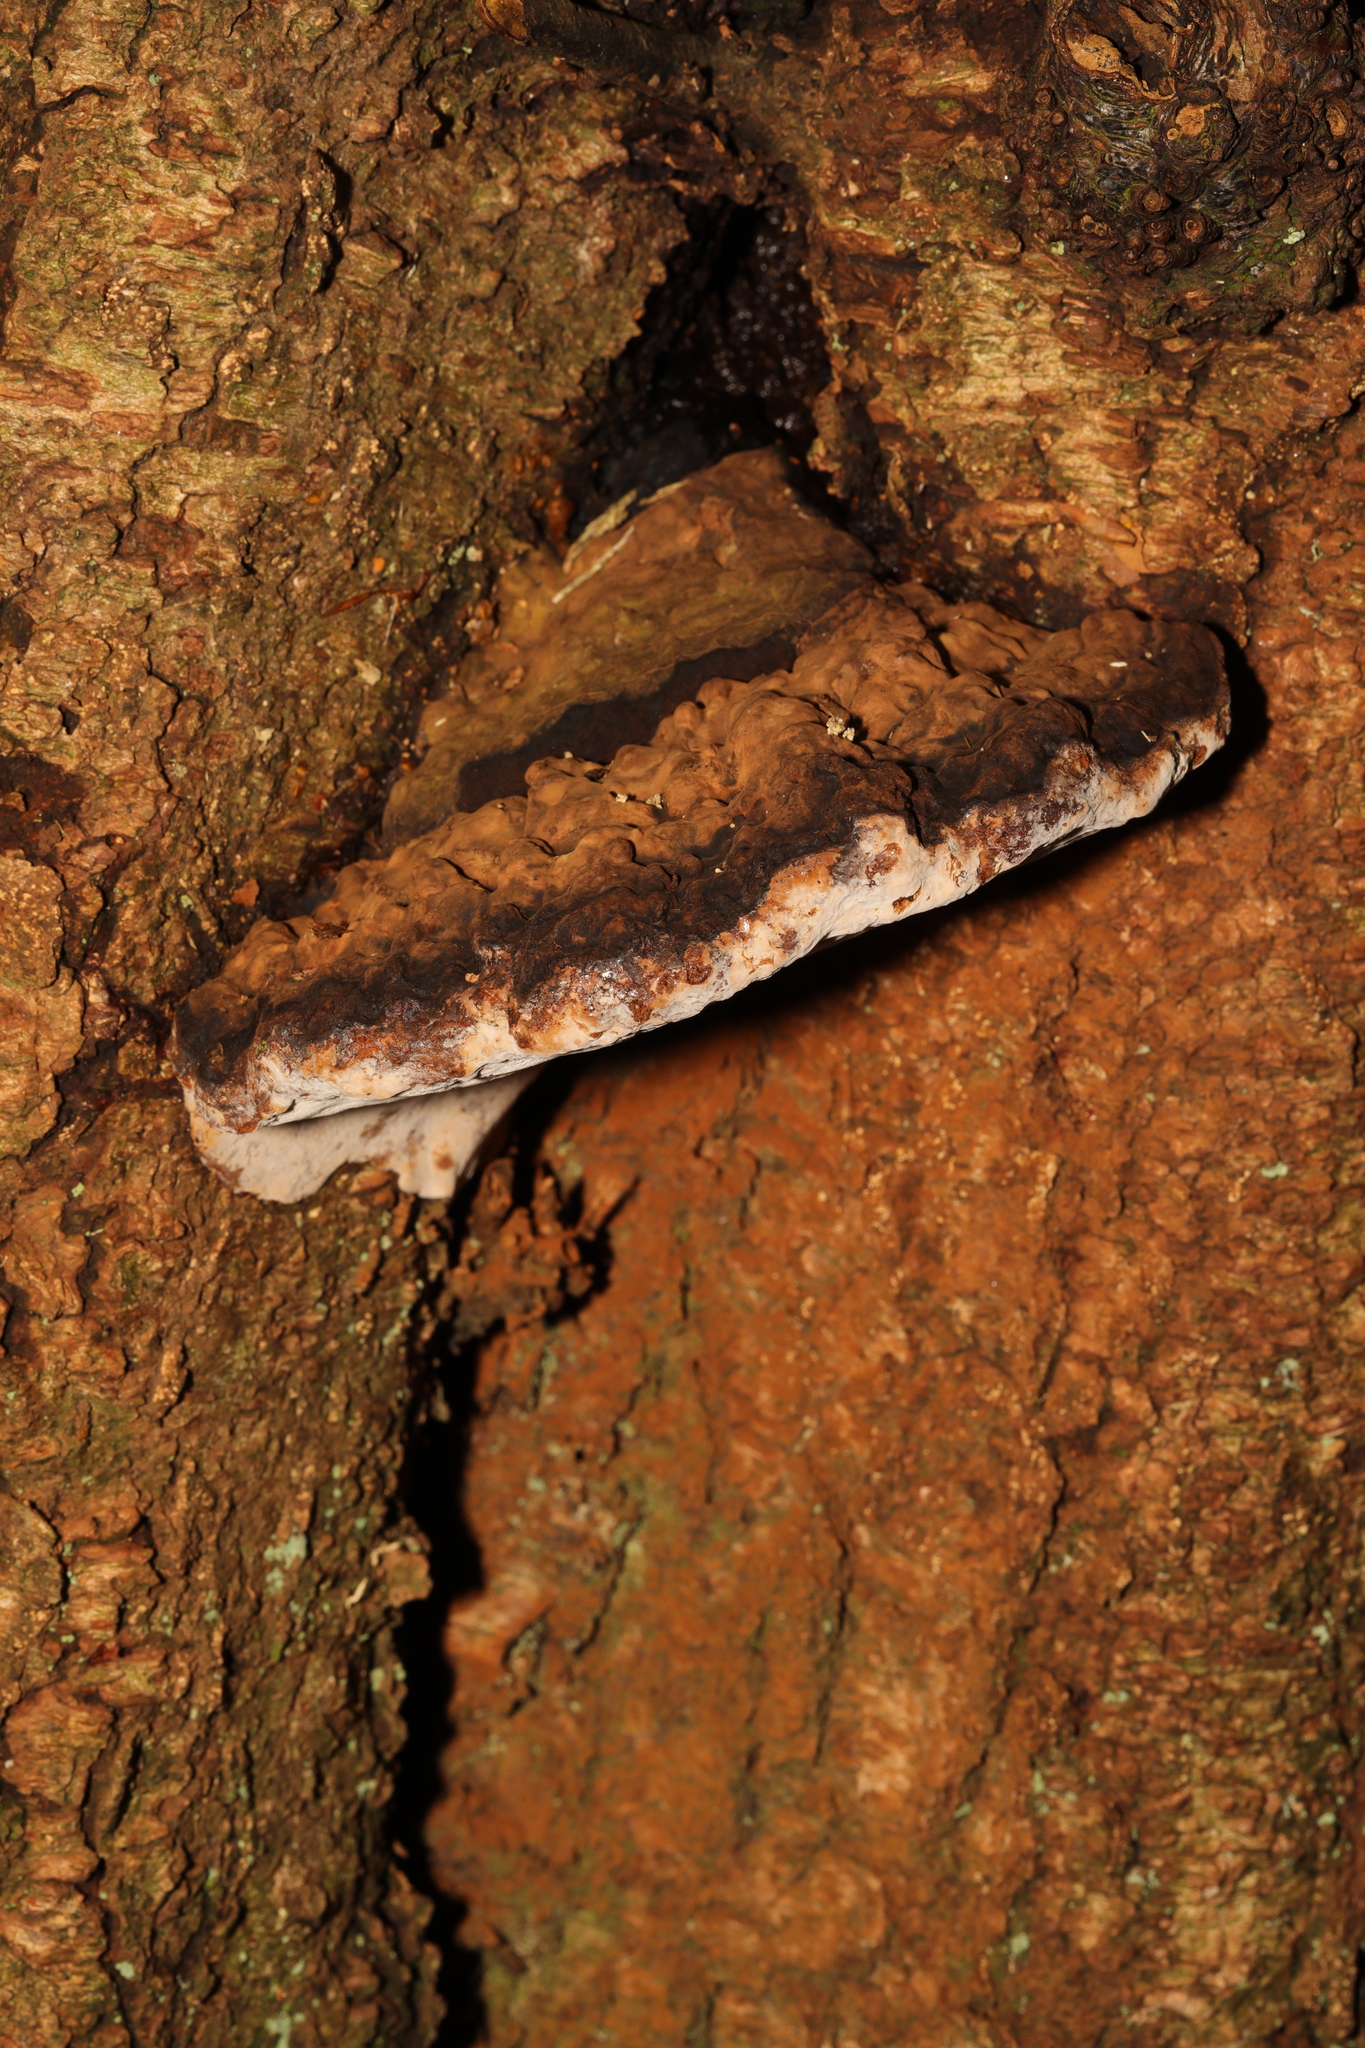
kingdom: Fungi
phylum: Basidiomycota
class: Agaricomycetes
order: Polyporales
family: Polyporaceae
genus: Ganoderma
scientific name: Ganoderma applanatum
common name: Artist's bracket
